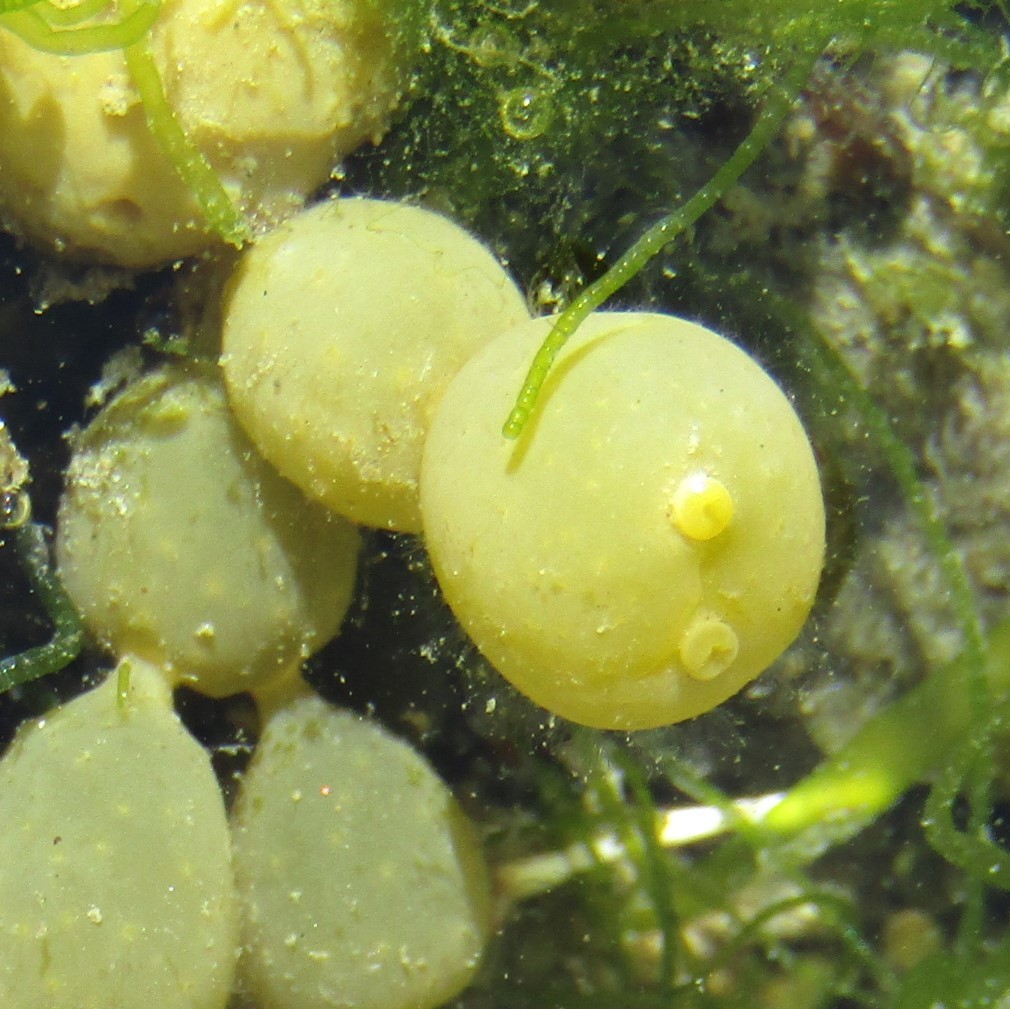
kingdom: Chromista
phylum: Ochrophyta
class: Phaeophyceae
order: Fucales
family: Hormosiraceae
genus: Hormosira
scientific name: Hormosira banksii
